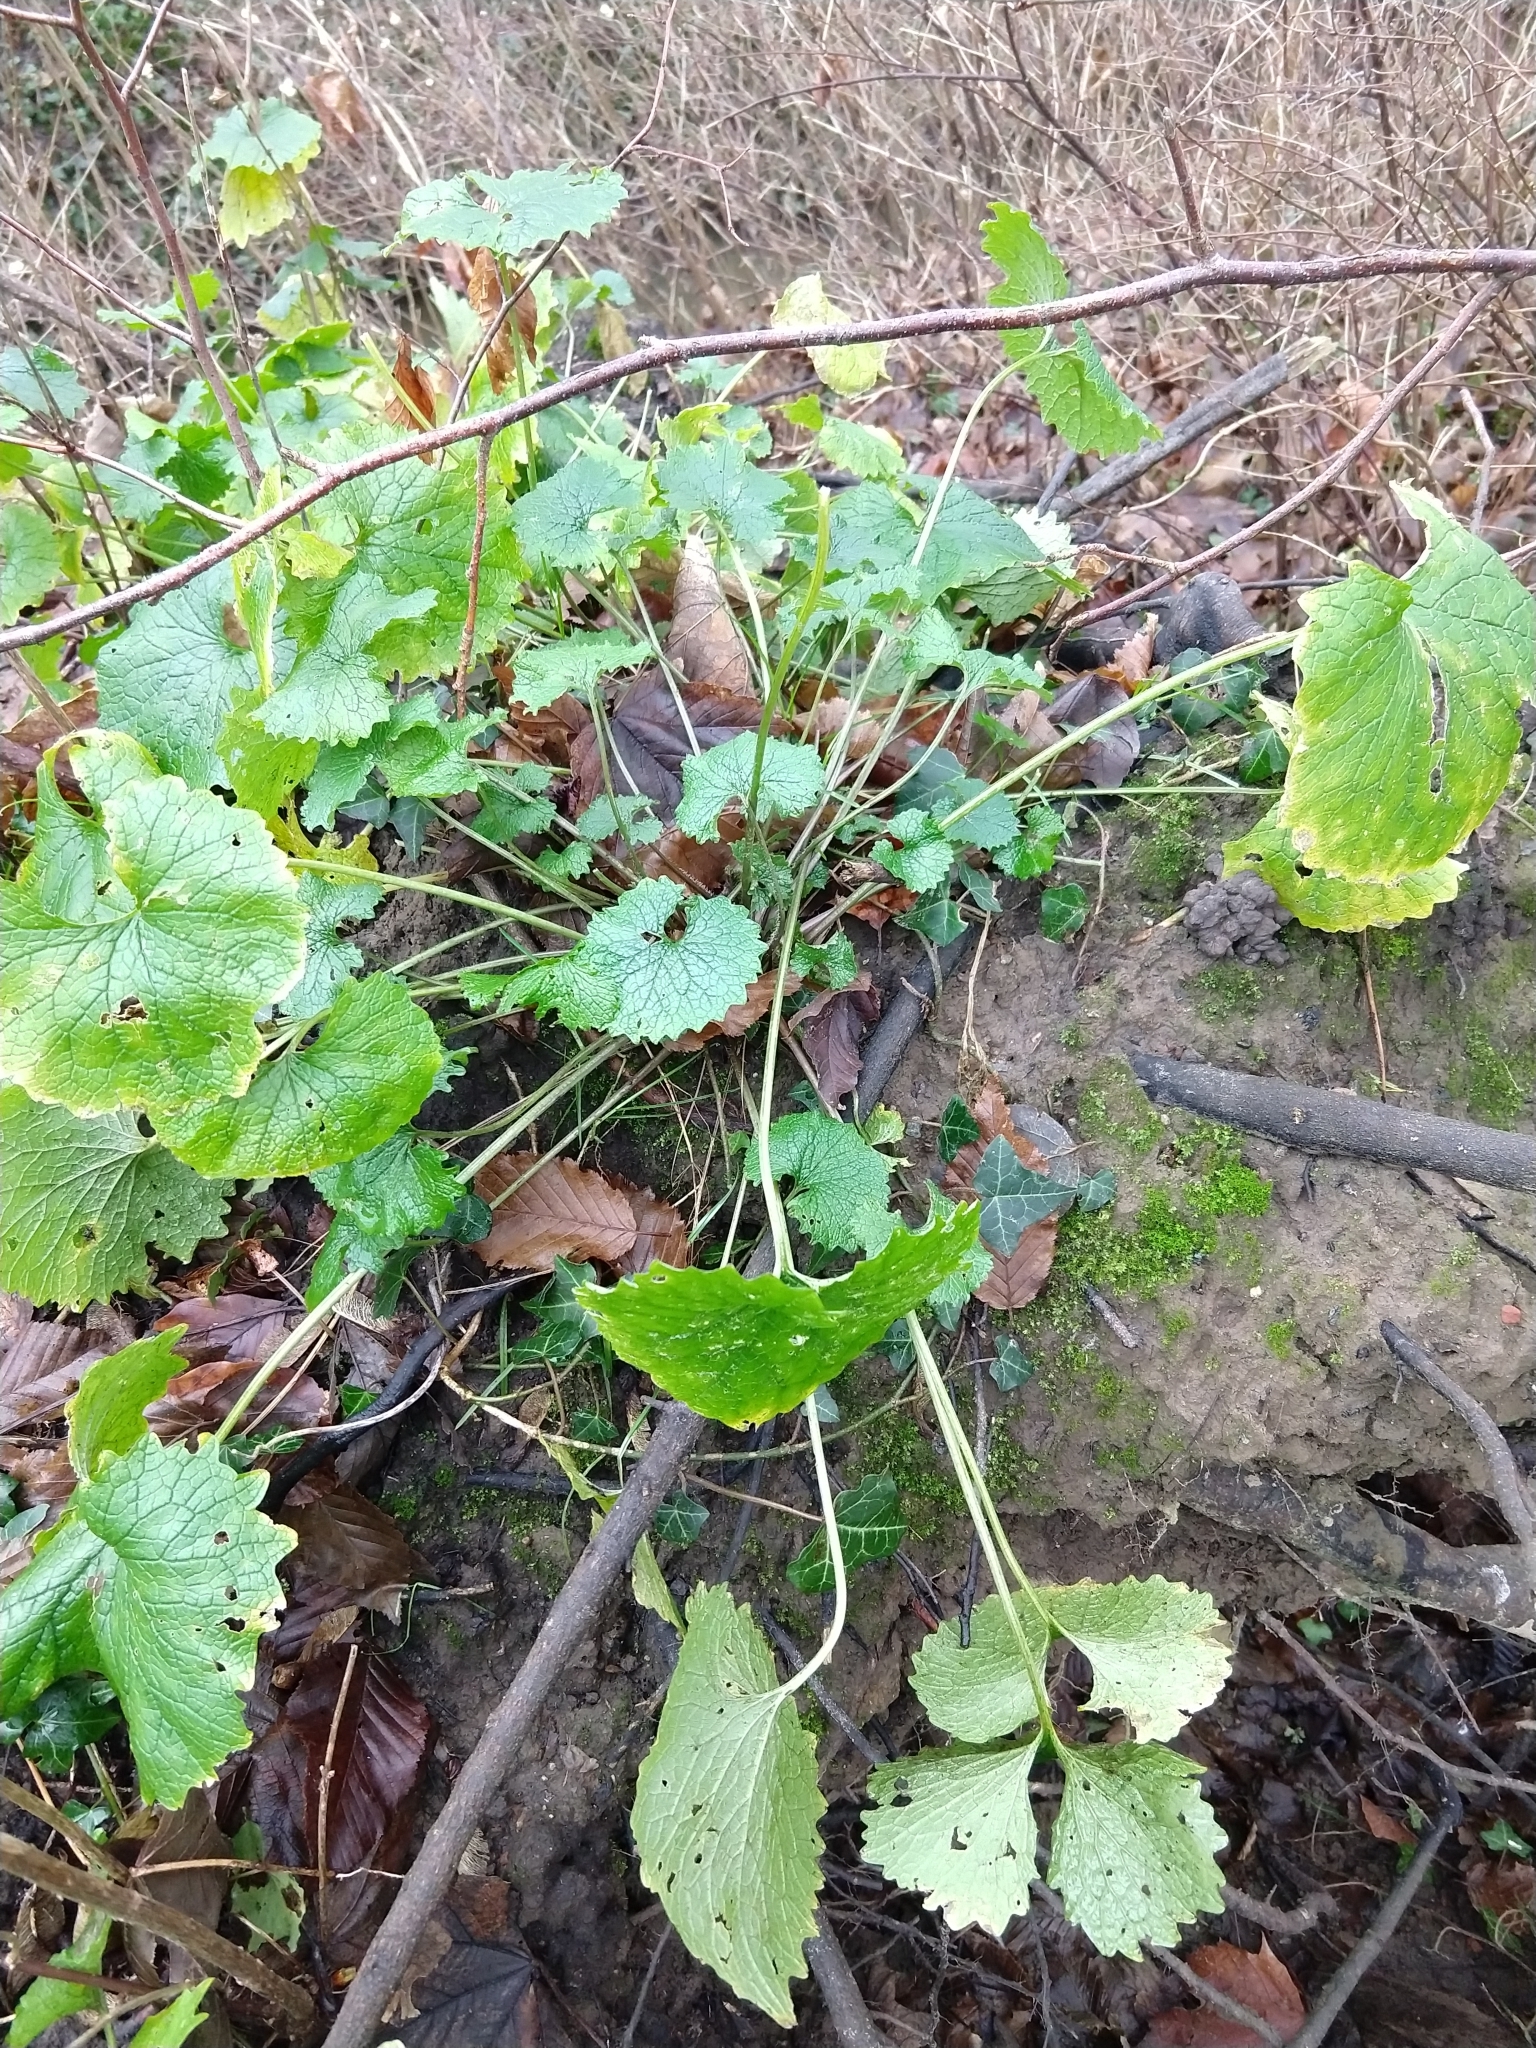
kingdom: Plantae
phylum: Tracheophyta
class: Magnoliopsida
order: Brassicales
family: Brassicaceae
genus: Alliaria
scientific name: Alliaria petiolata
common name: Garlic mustard
